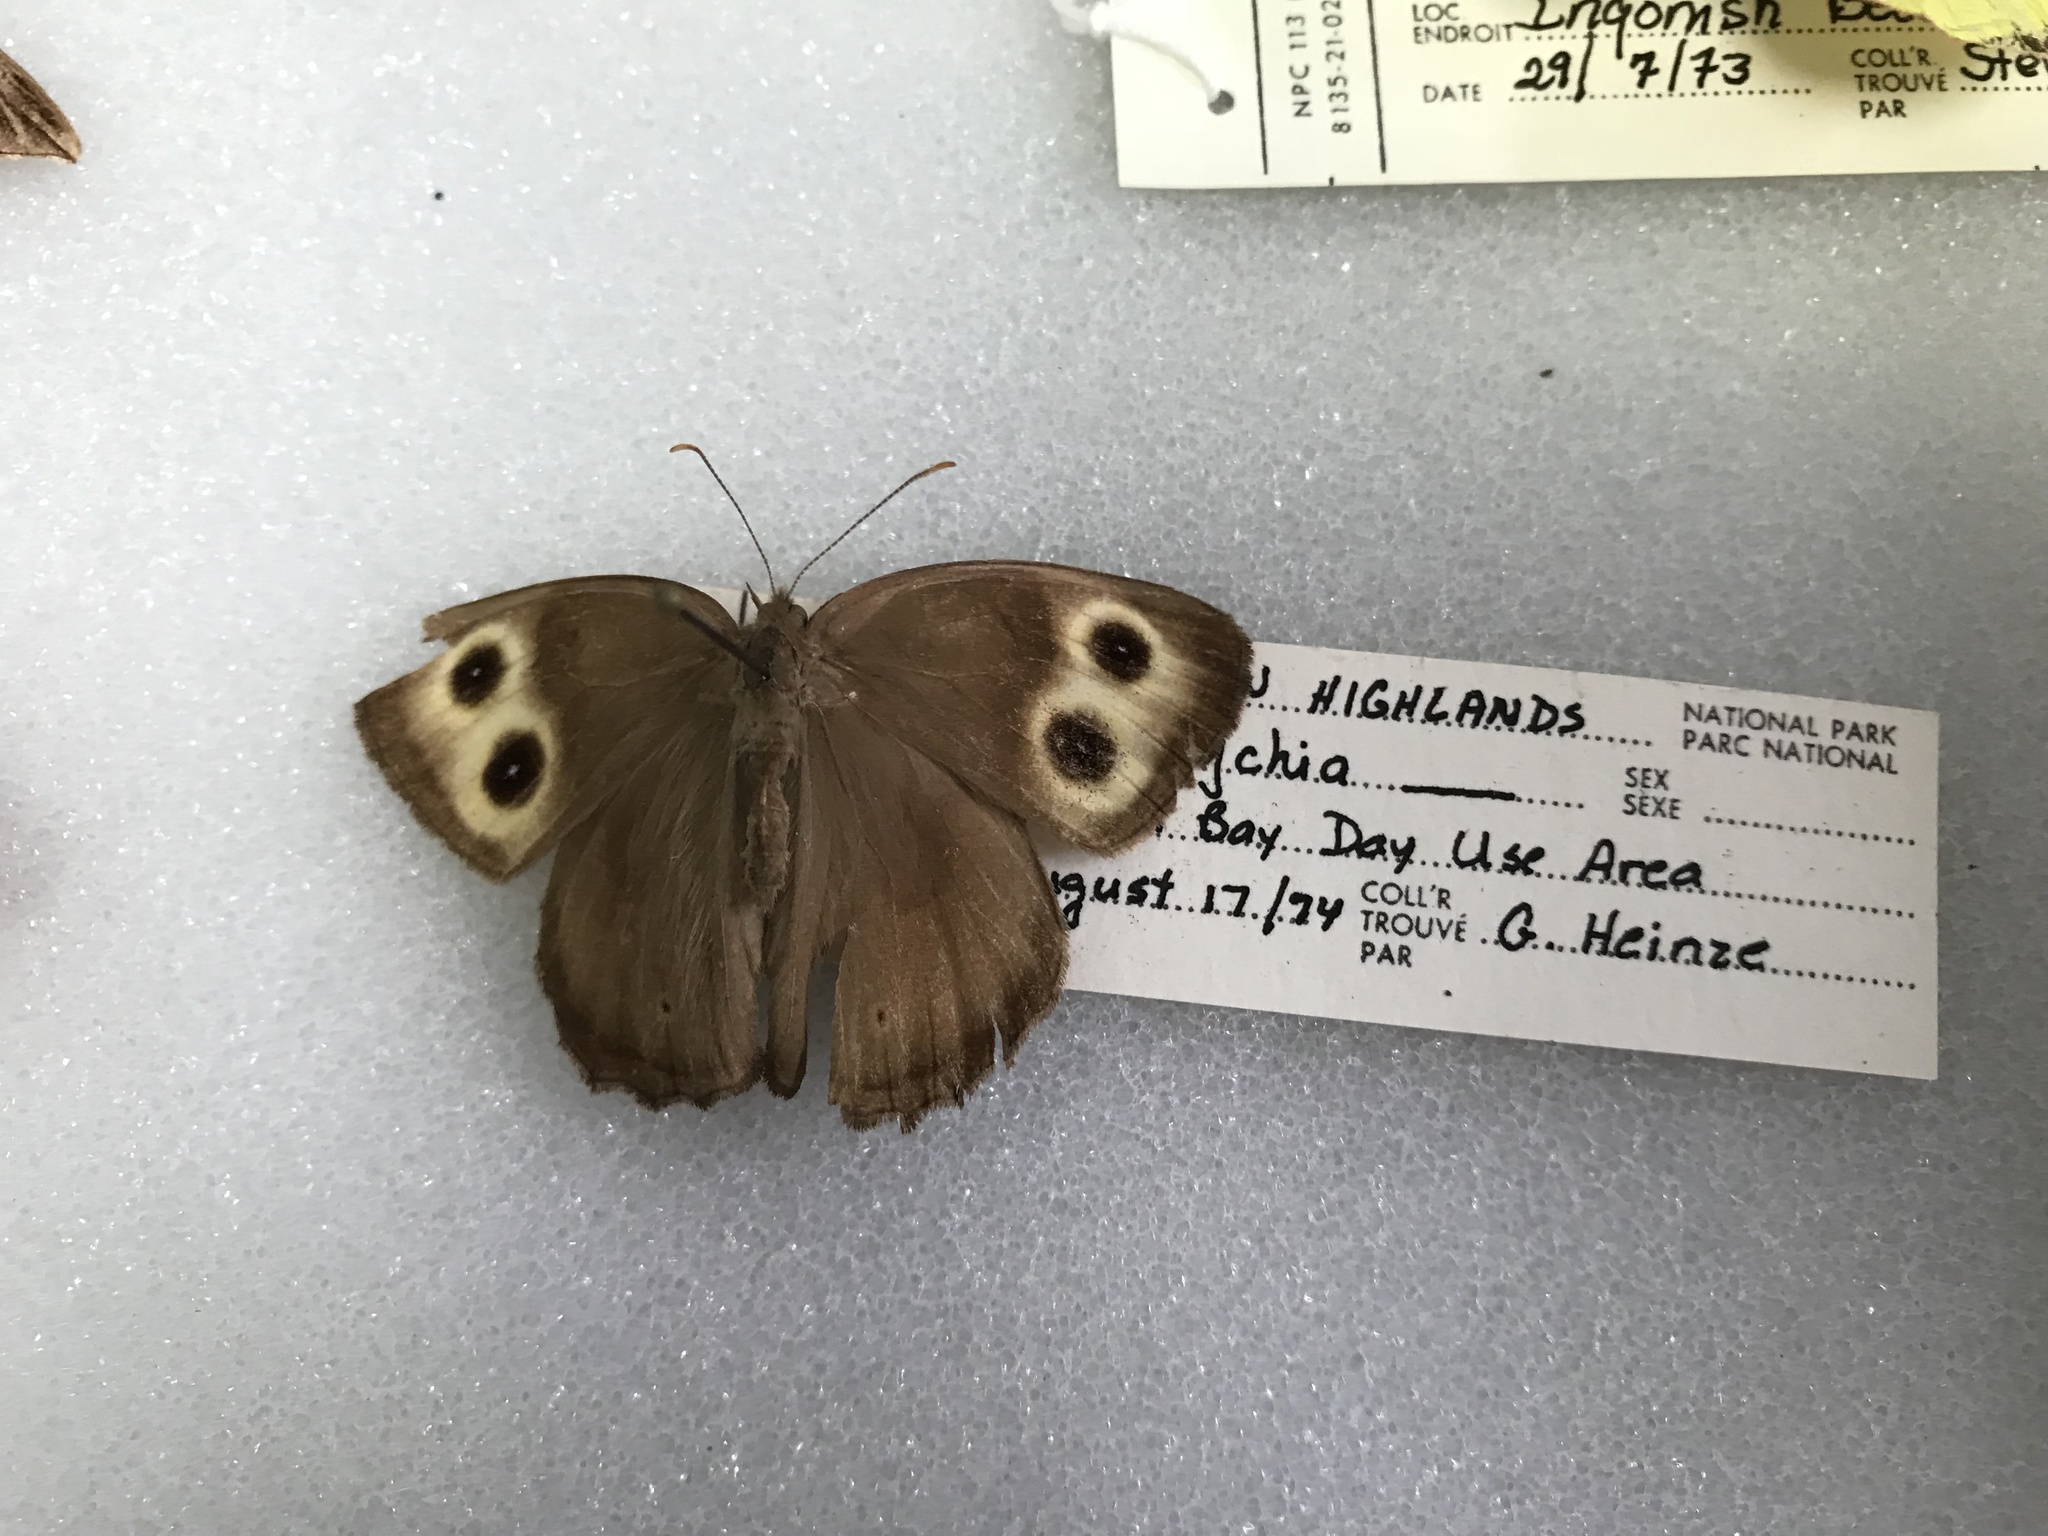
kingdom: Animalia
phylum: Arthropoda
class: Insecta
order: Lepidoptera
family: Nymphalidae
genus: Cercyonis
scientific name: Cercyonis pegala
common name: Common wood-nymph
